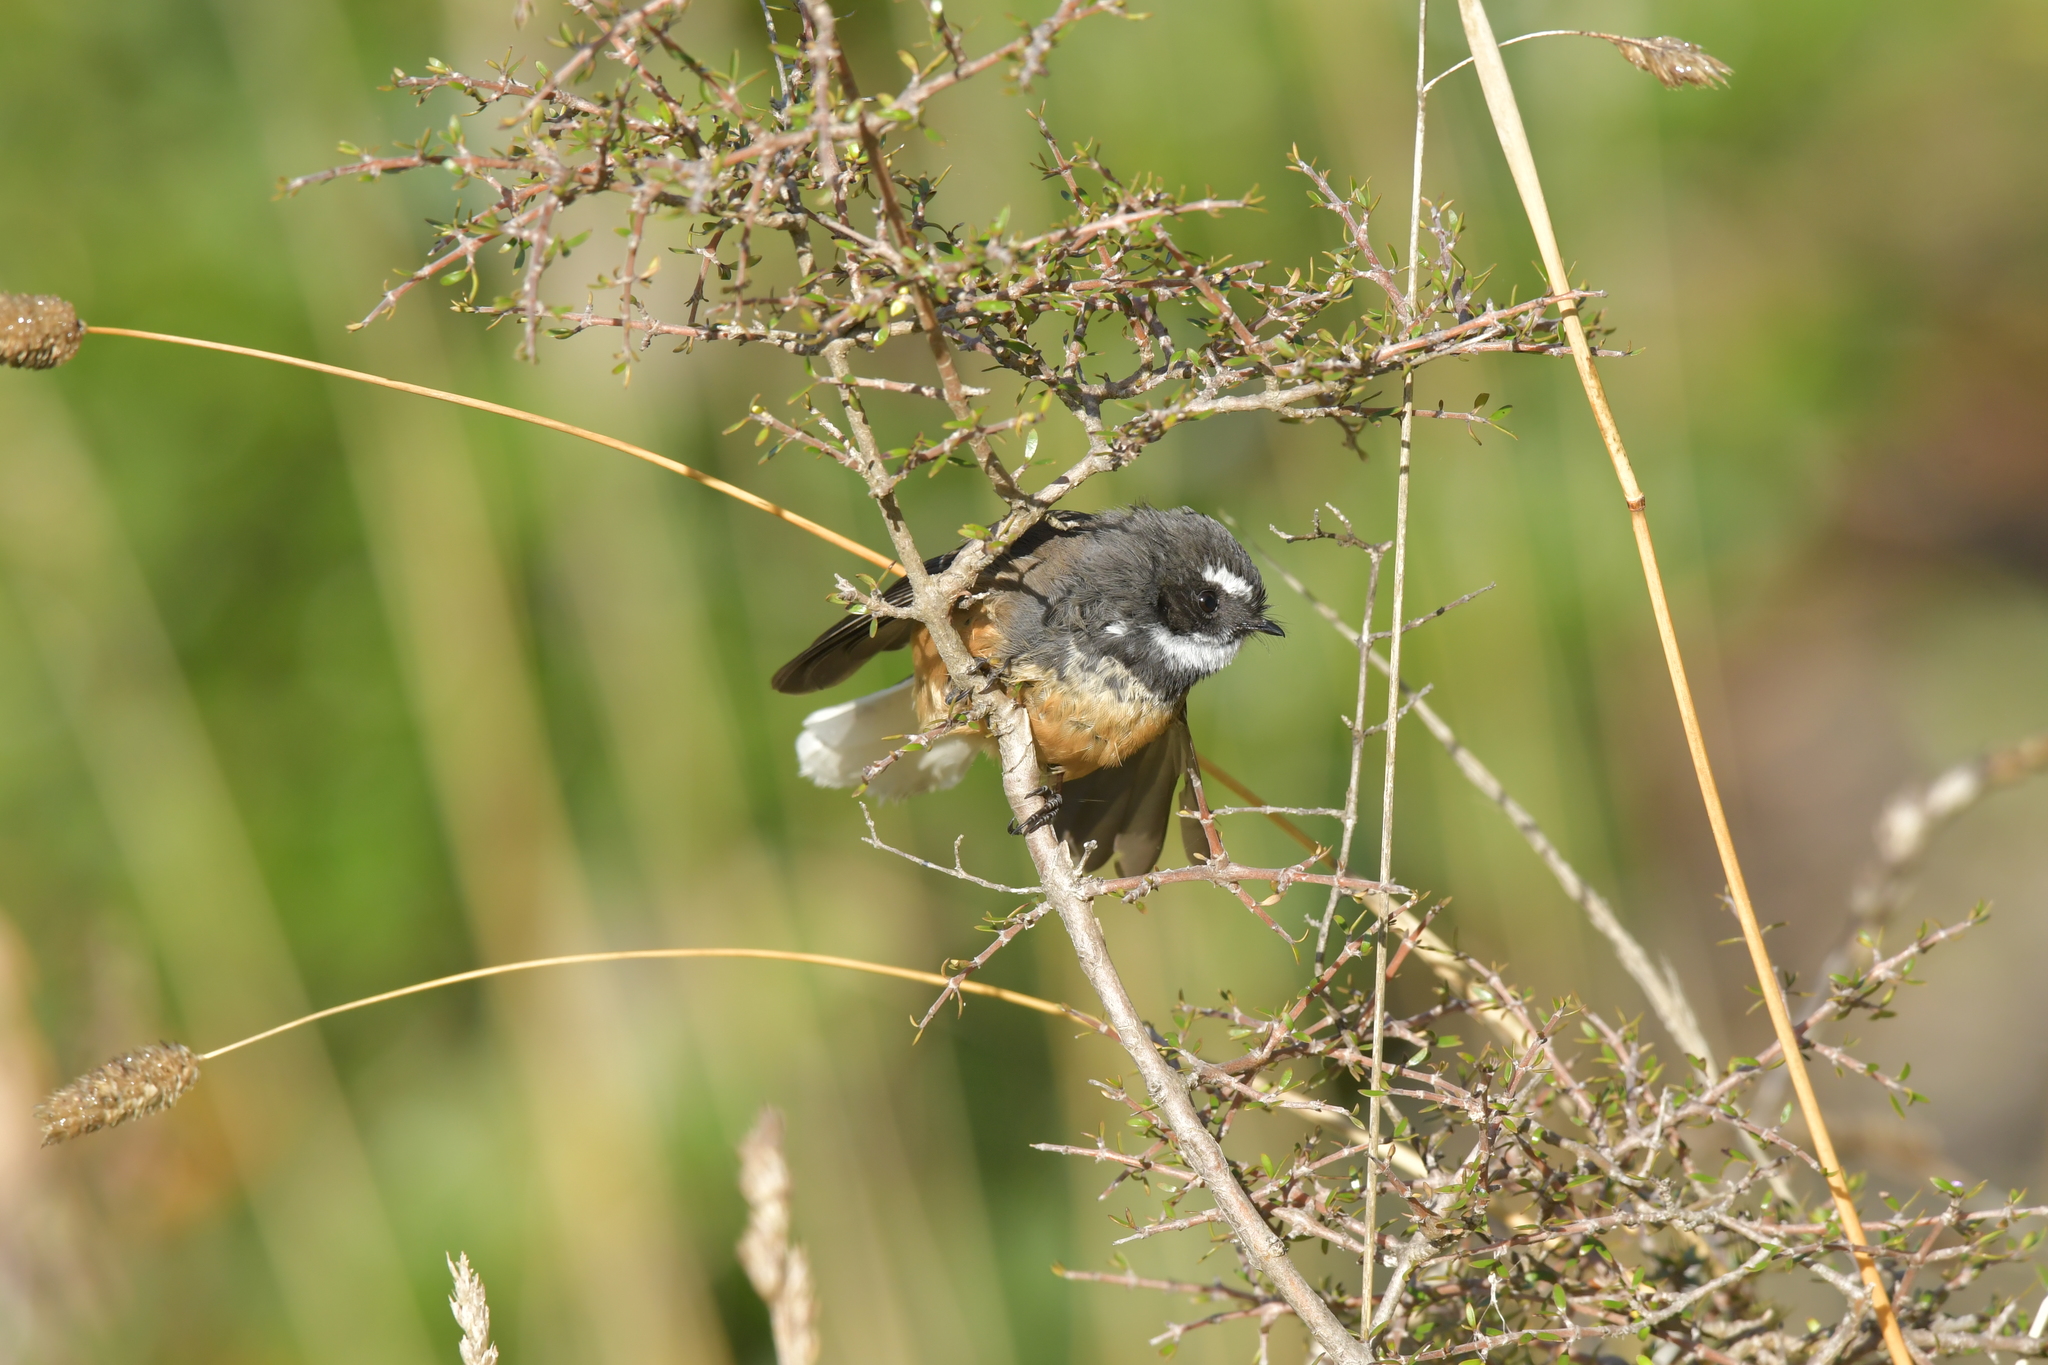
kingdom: Animalia
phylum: Chordata
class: Aves
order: Passeriformes
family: Rhipiduridae
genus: Rhipidura
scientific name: Rhipidura fuliginosa
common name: New zealand fantail
